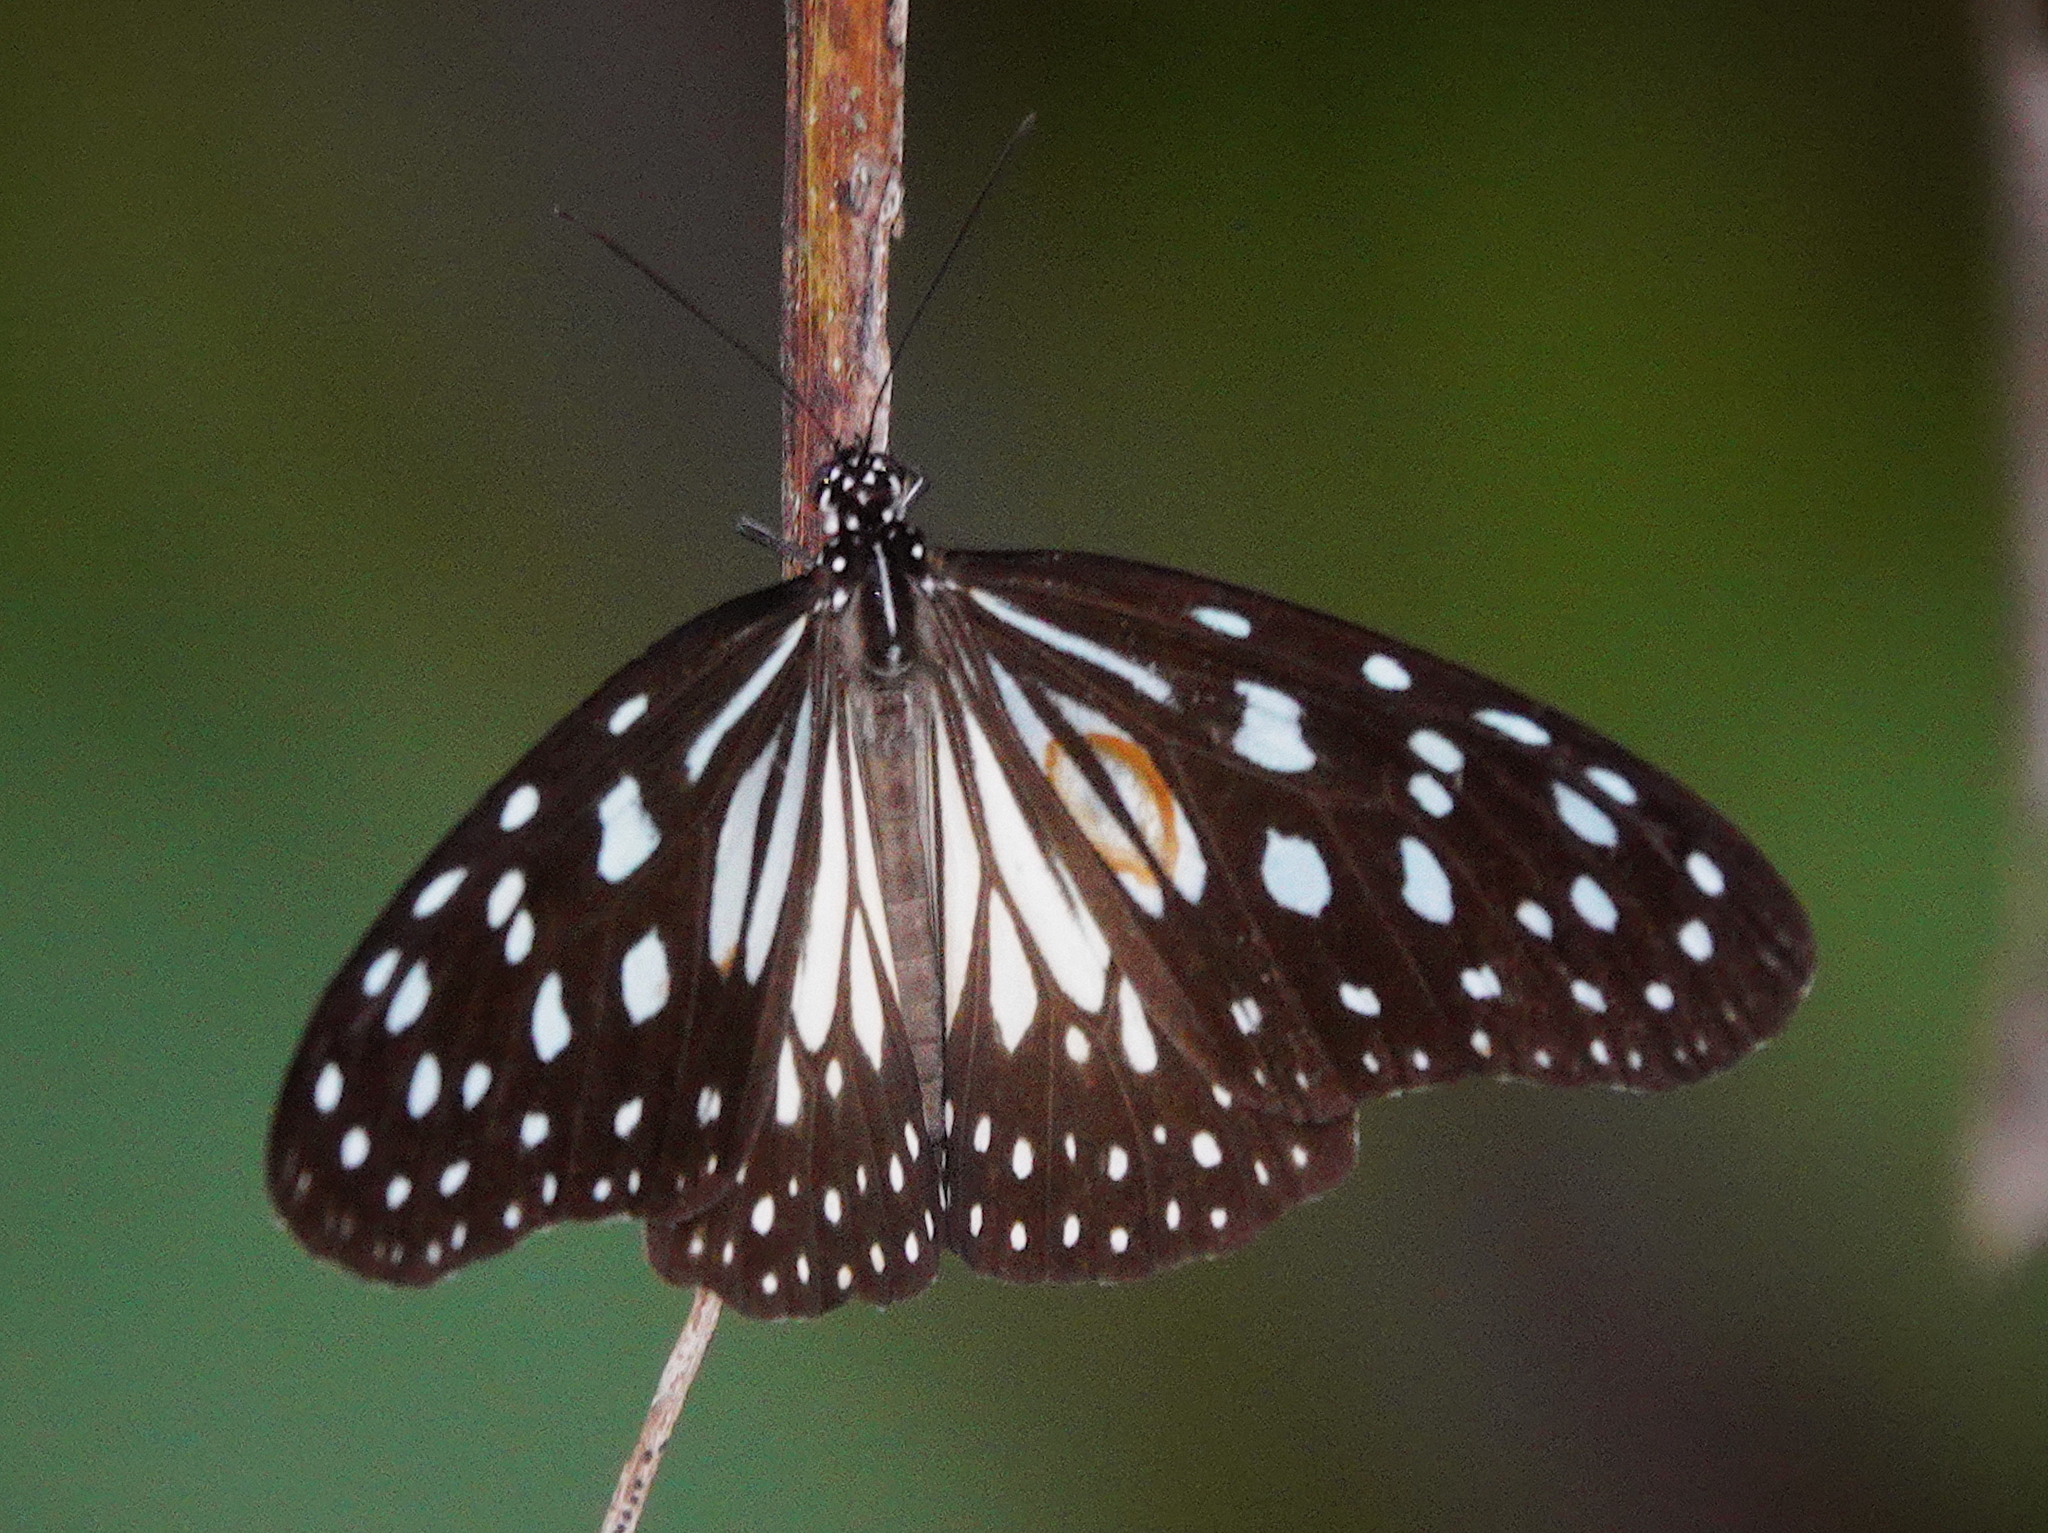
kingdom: Animalia
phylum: Arthropoda
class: Insecta
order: Lepidoptera
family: Nymphalidae
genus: Ideopsis
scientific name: Ideopsis juventa
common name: Grey glassy tiger
